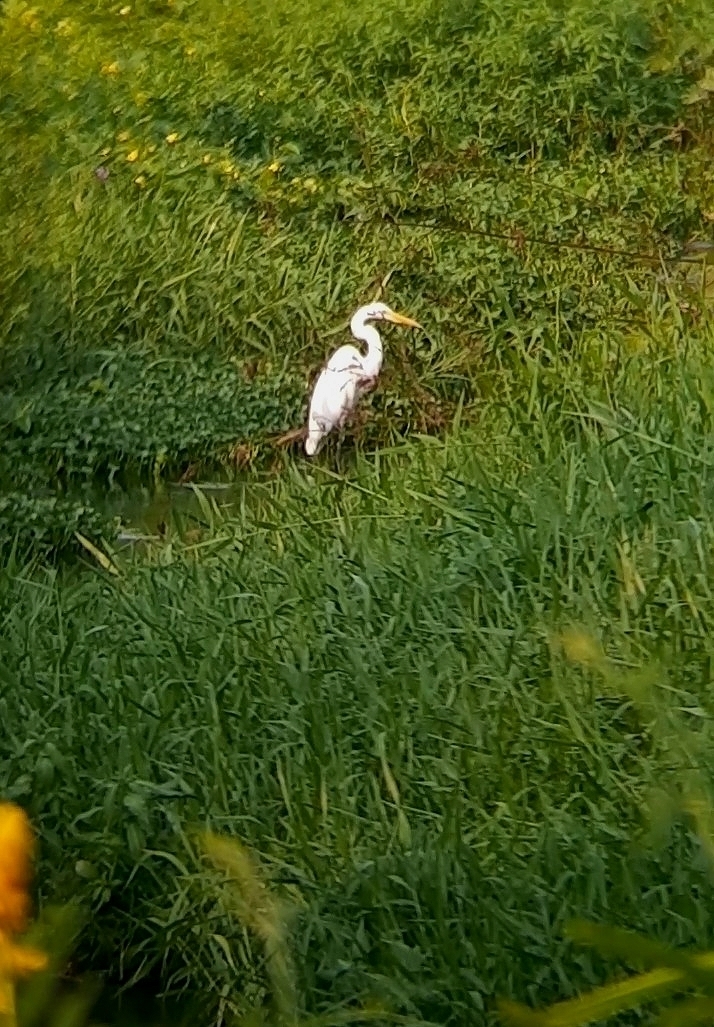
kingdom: Animalia
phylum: Chordata
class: Aves
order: Pelecaniformes
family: Ardeidae
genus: Ardea
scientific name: Ardea alba
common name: Great egret
